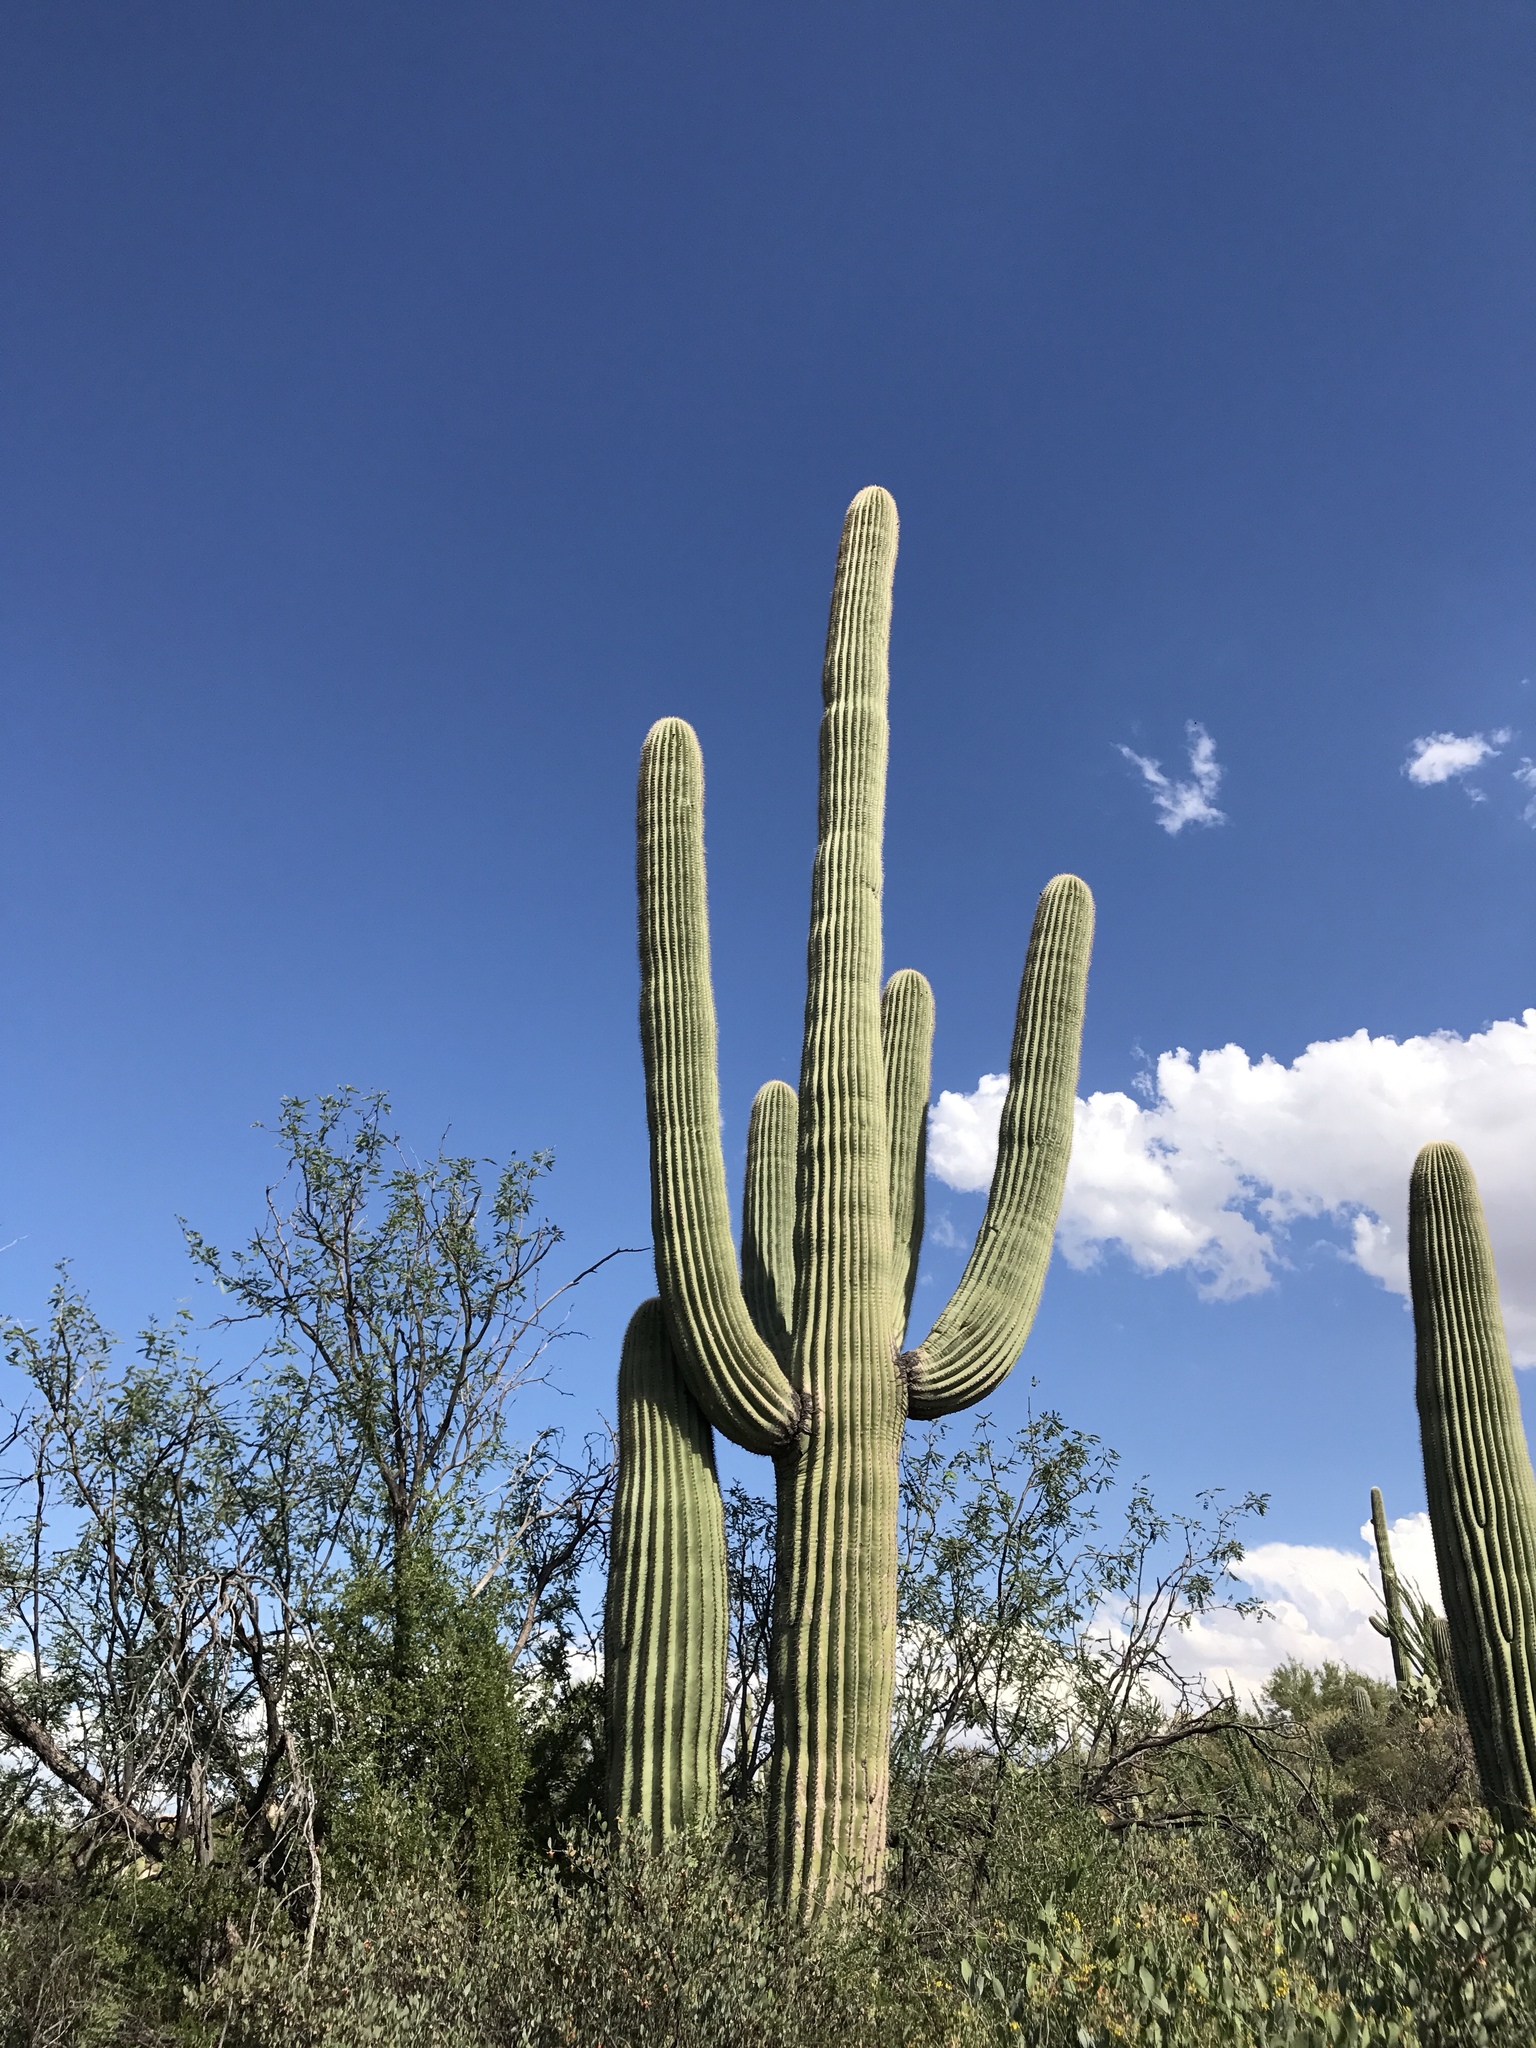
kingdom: Plantae
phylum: Tracheophyta
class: Magnoliopsida
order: Caryophyllales
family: Cactaceae
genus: Carnegiea
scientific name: Carnegiea gigantea
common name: Saguaro
